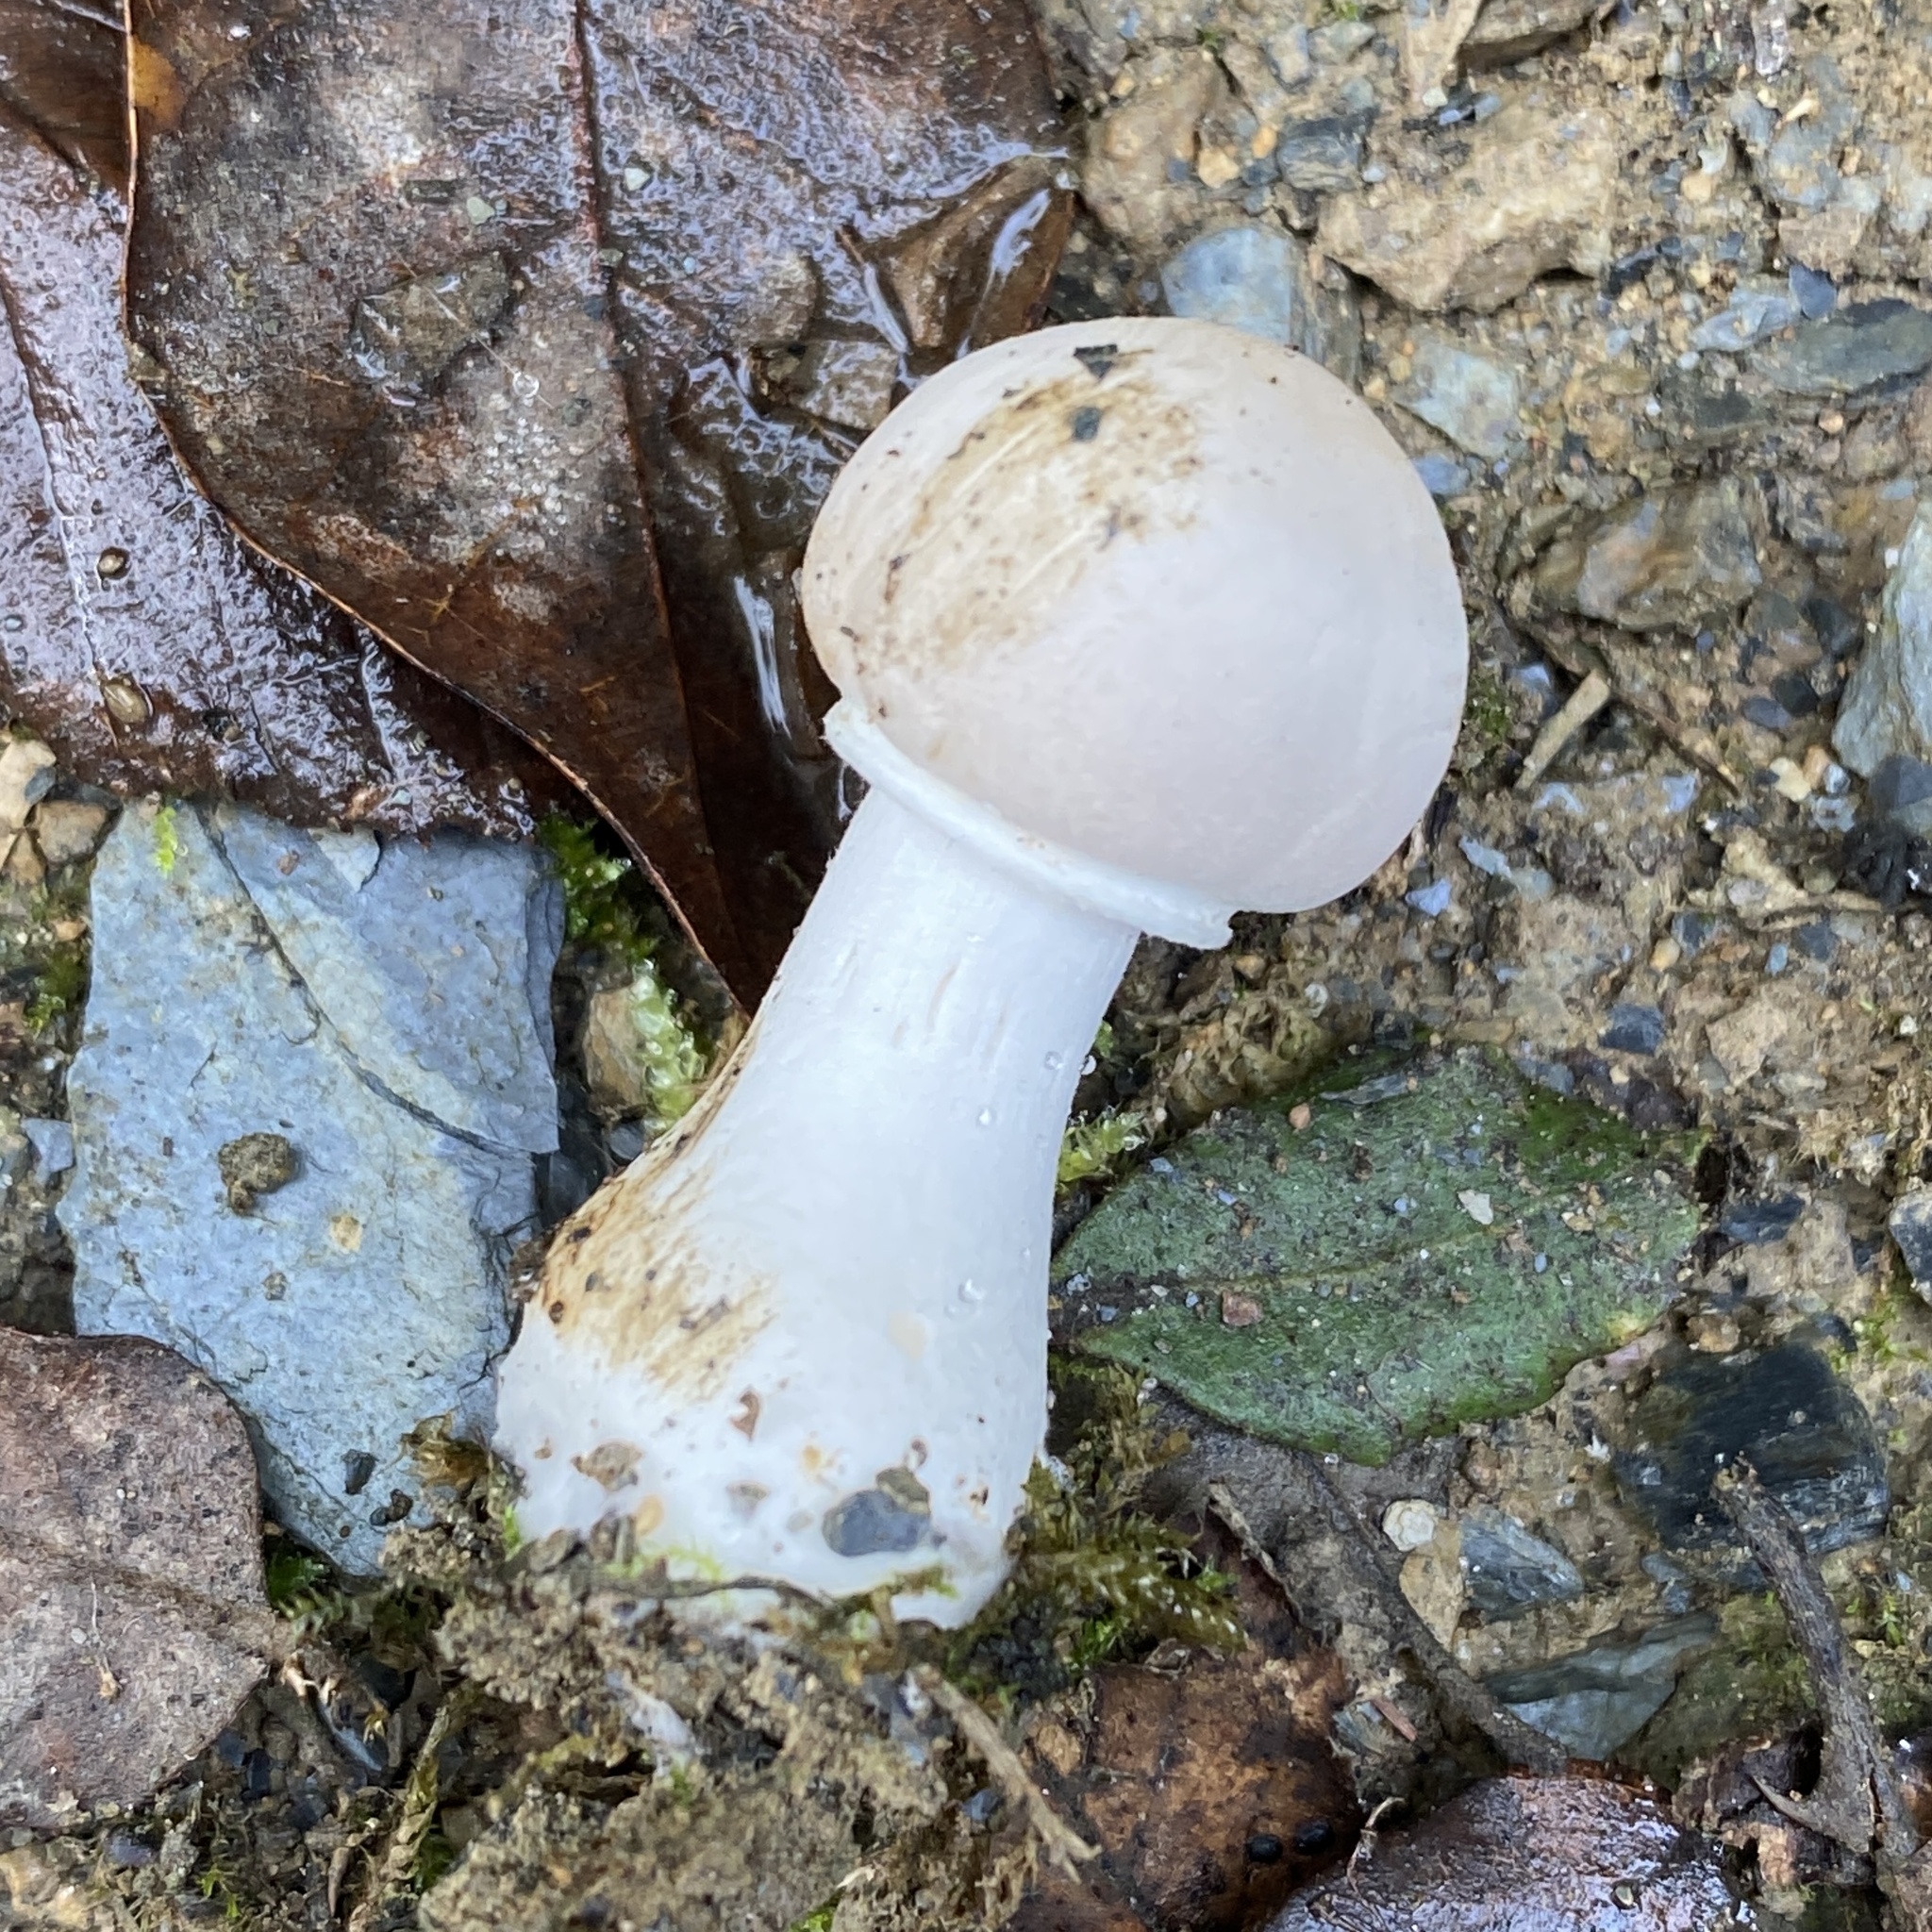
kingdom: Fungi
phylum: Basidiomycota
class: Agaricomycetes
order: Agaricales
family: Agaricaceae
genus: Leucoagaricus
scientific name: Leucoagaricus leucothites
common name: White dapperling
